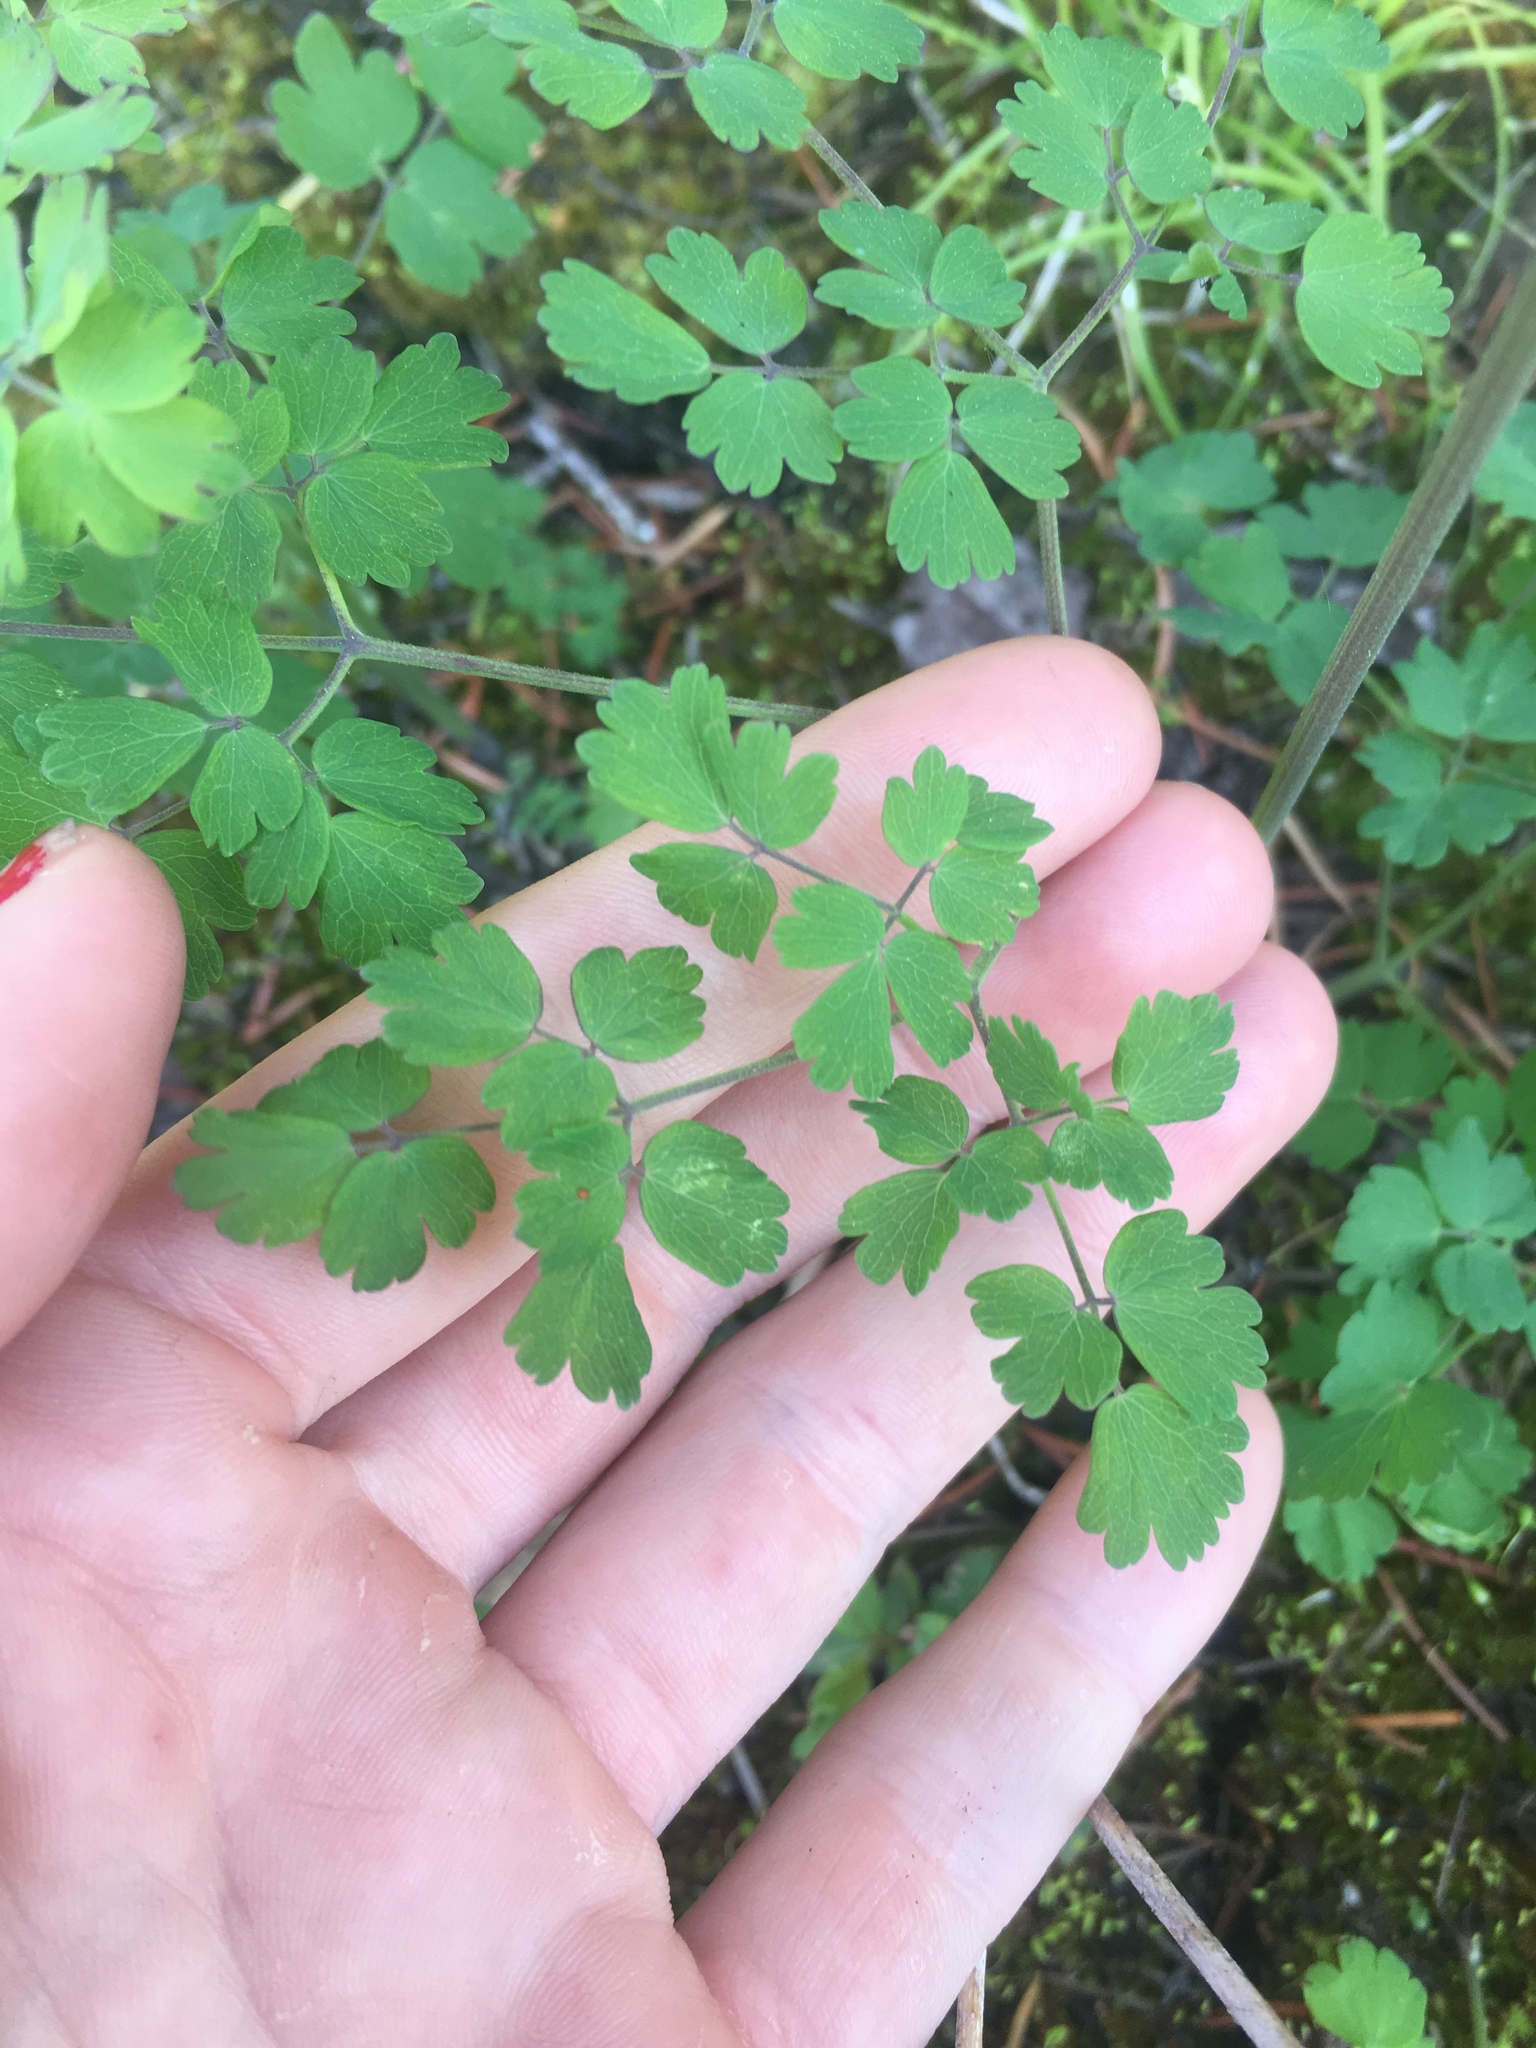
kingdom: Plantae
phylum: Tracheophyta
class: Magnoliopsida
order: Ranunculales
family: Ranunculaceae
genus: Thalictrum
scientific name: Thalictrum occidentale
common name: Western meadow-rue
